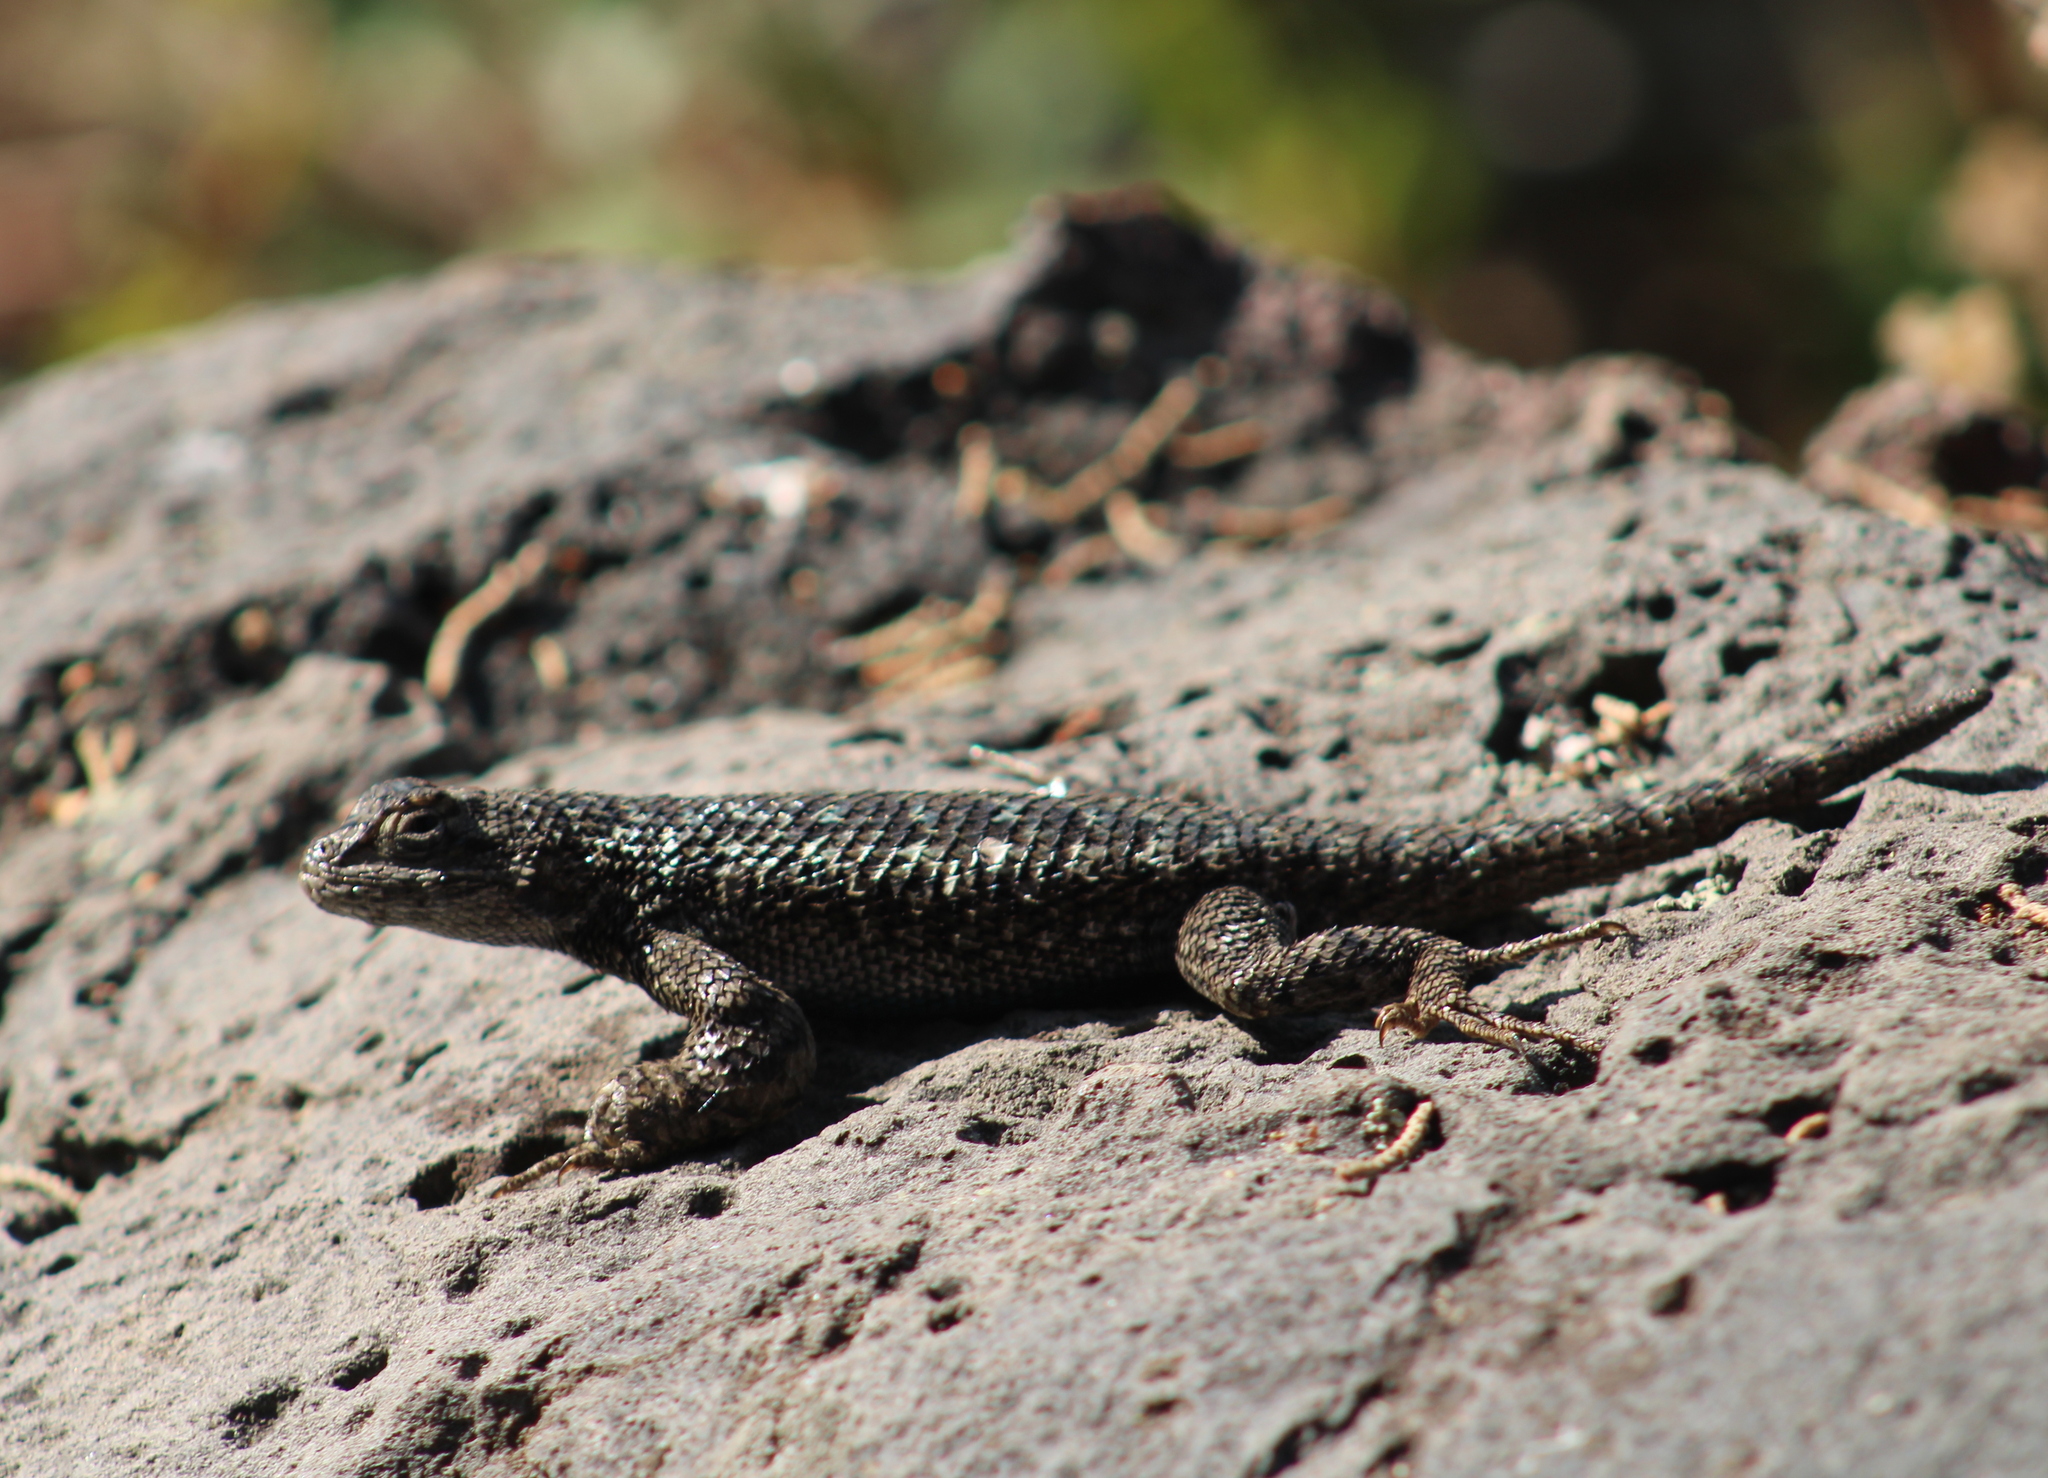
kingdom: Animalia
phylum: Chordata
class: Squamata
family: Phrynosomatidae
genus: Sceloporus
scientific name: Sceloporus occidentalis
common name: Western fence lizard
